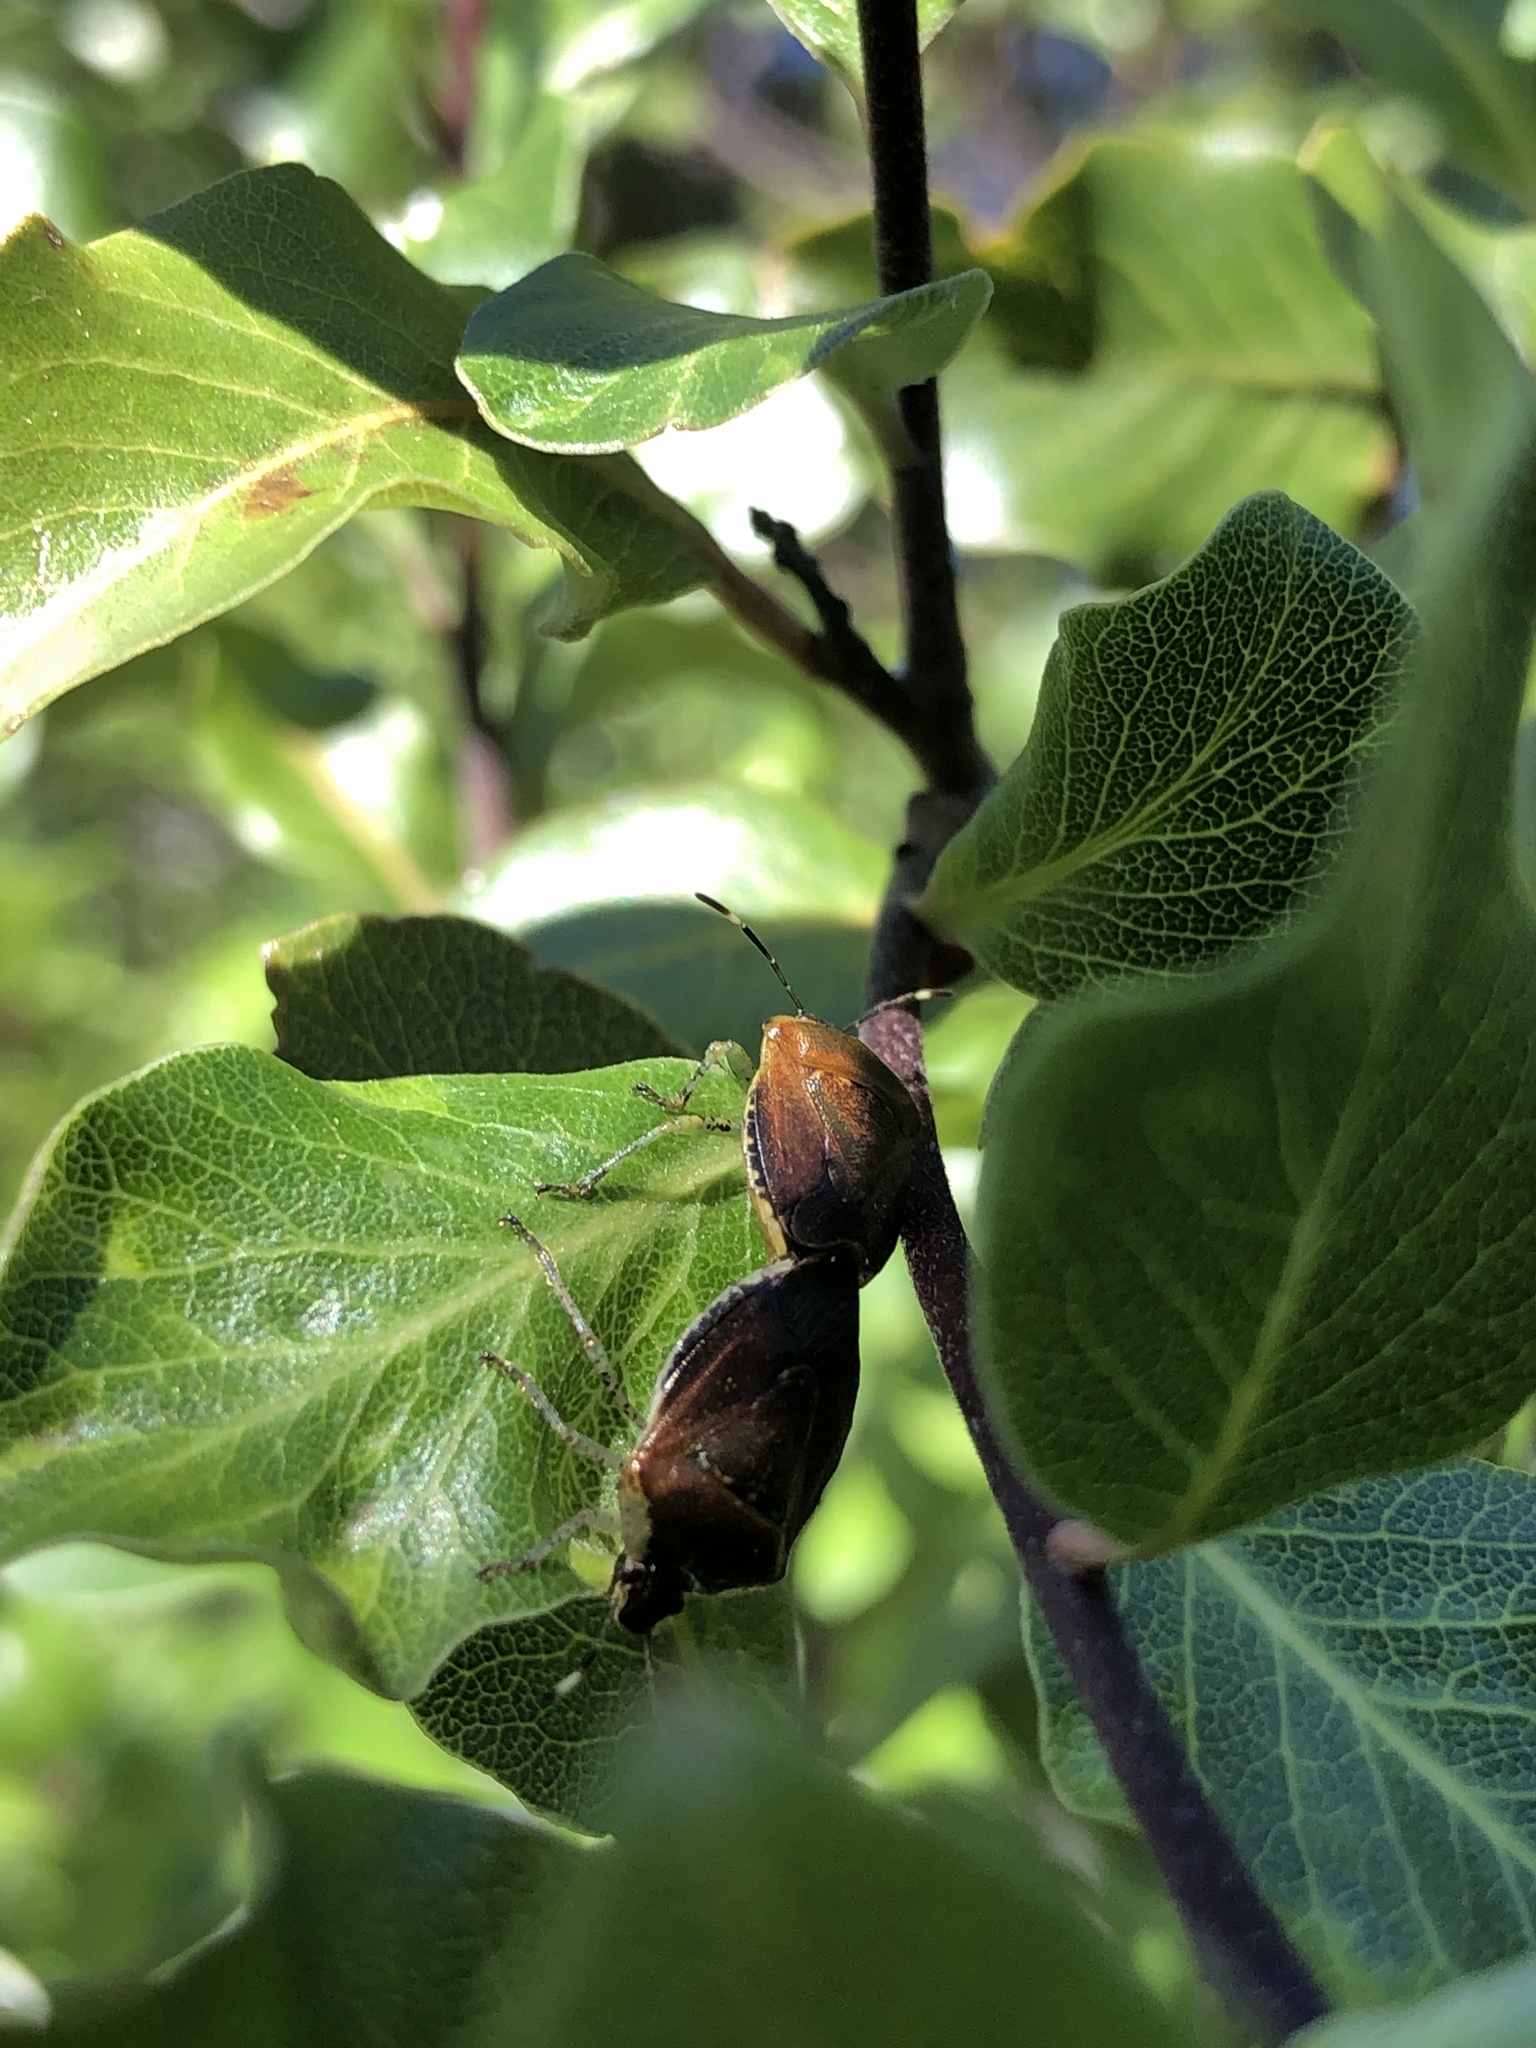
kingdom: Animalia
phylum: Arthropoda
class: Insecta
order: Hemiptera
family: Pentatomidae
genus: Monteithiella
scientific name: Monteithiella
